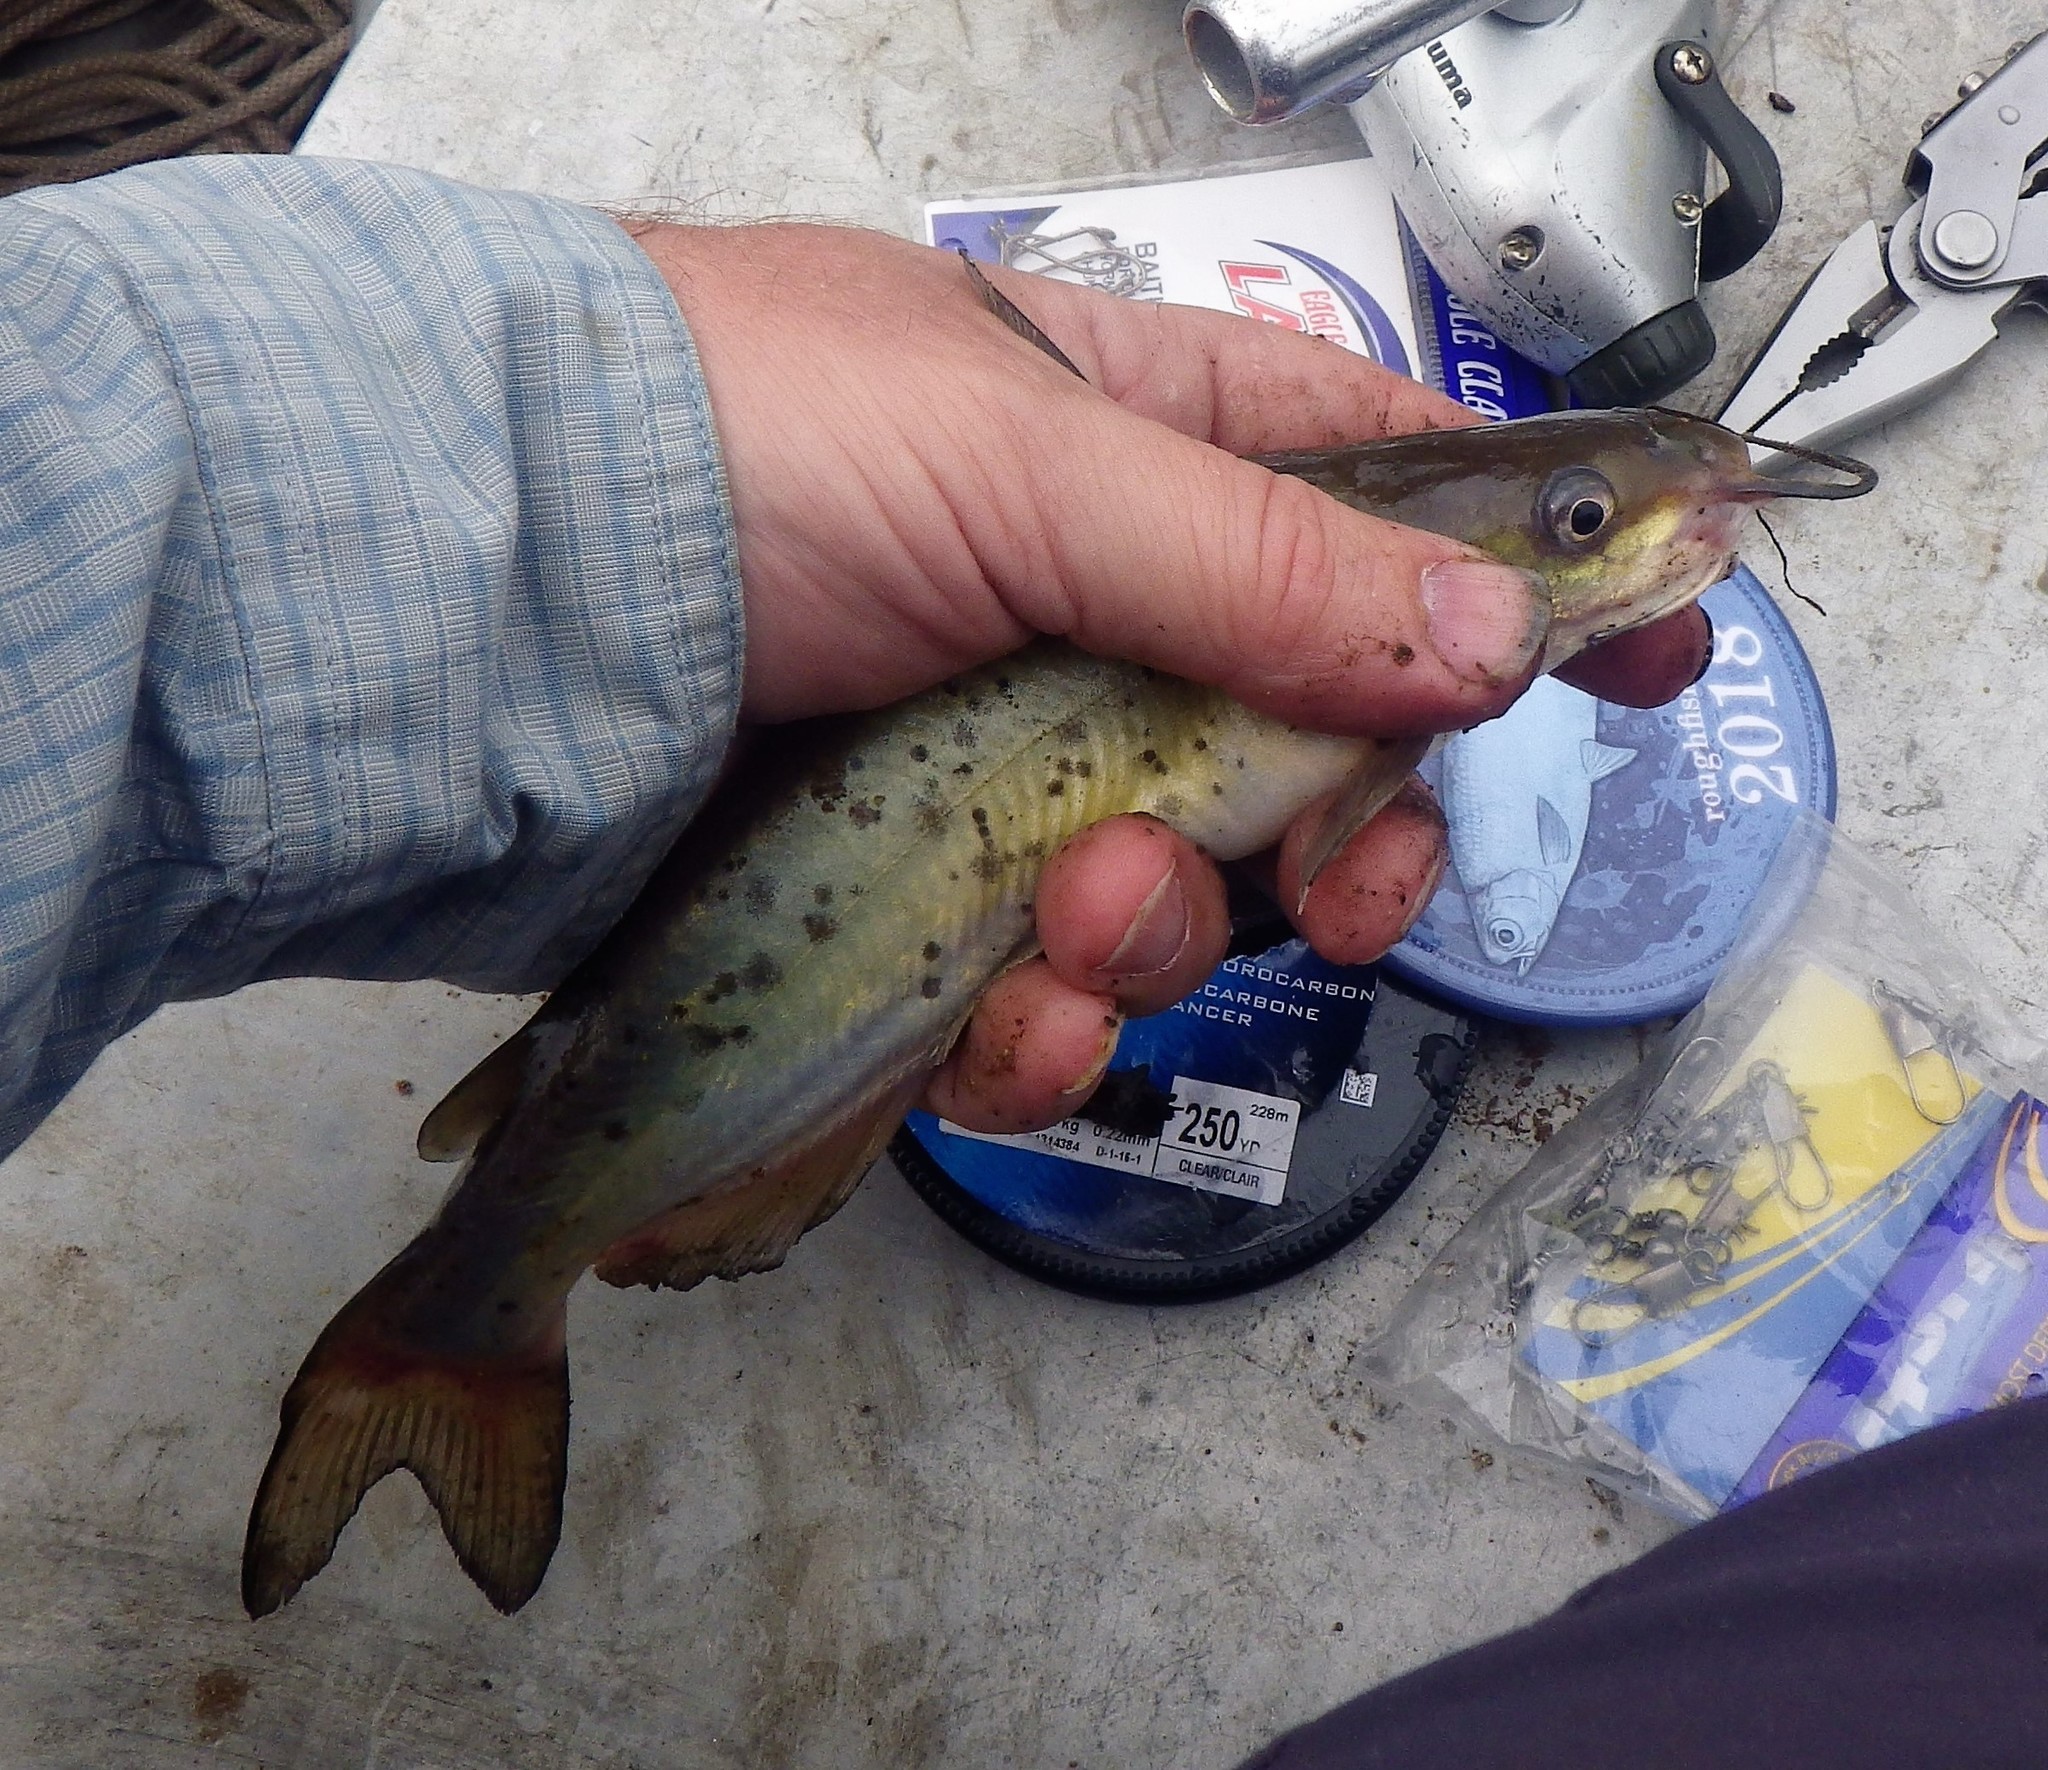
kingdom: Animalia
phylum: Chordata
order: Siluriformes
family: Ictaluridae
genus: Ictalurus
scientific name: Ictalurus punctatus
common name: Channel catfish
